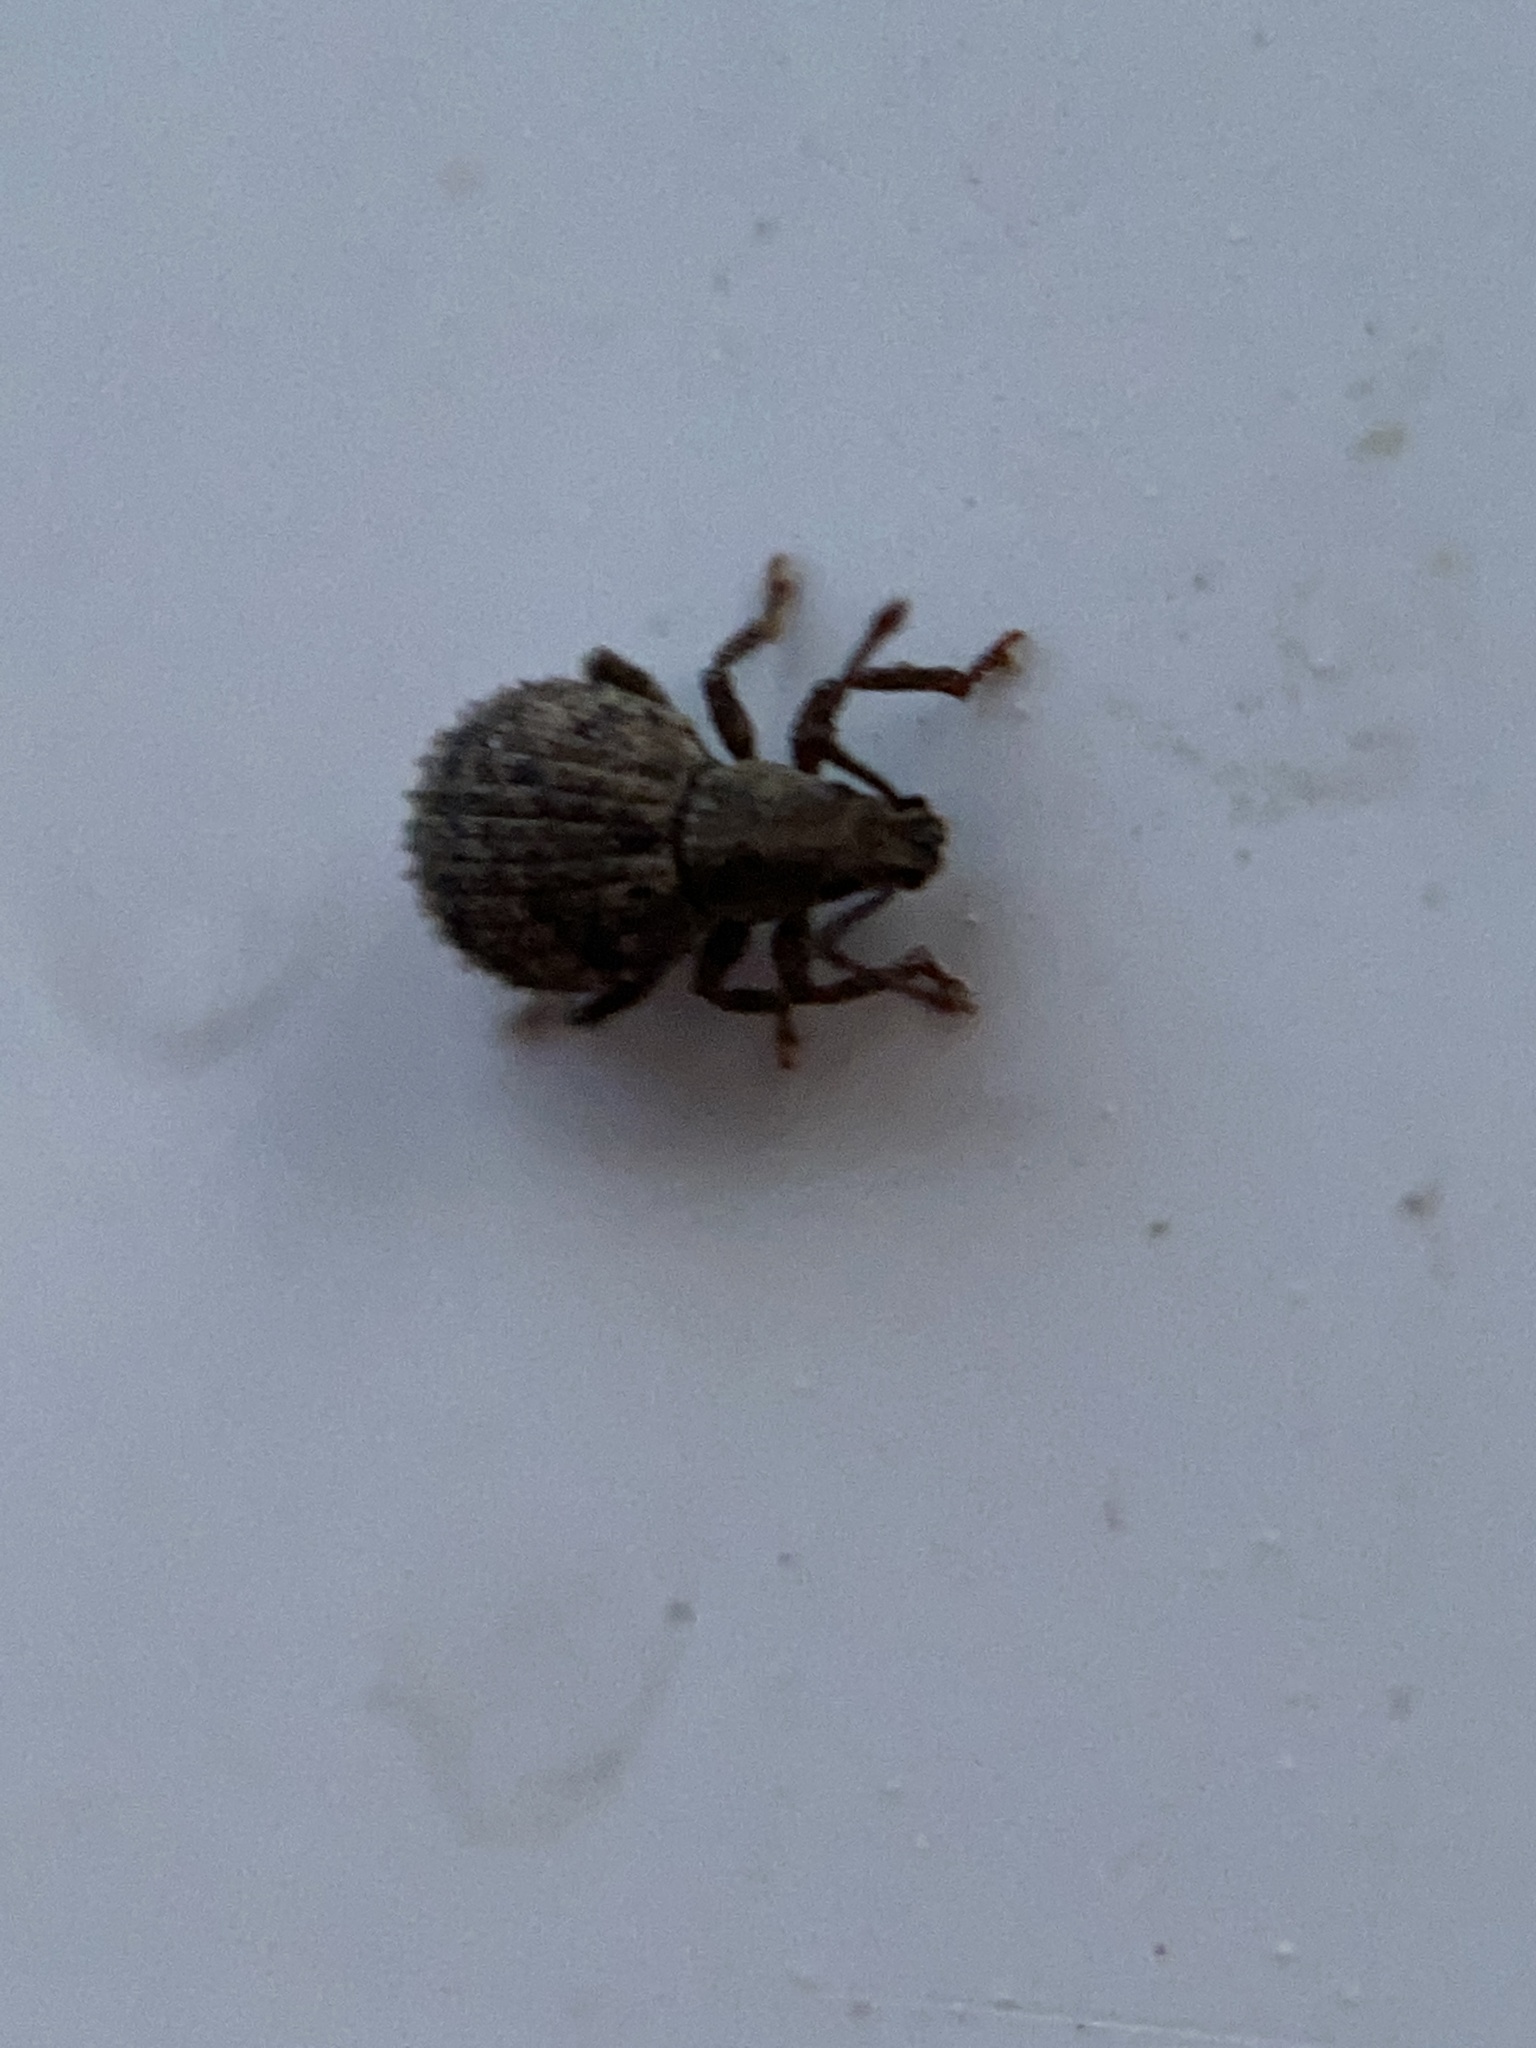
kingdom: Animalia
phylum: Arthropoda
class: Insecta
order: Coleoptera
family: Curculionidae
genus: Myosides
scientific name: Myosides seriehispidus
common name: Broadnosed weevil
